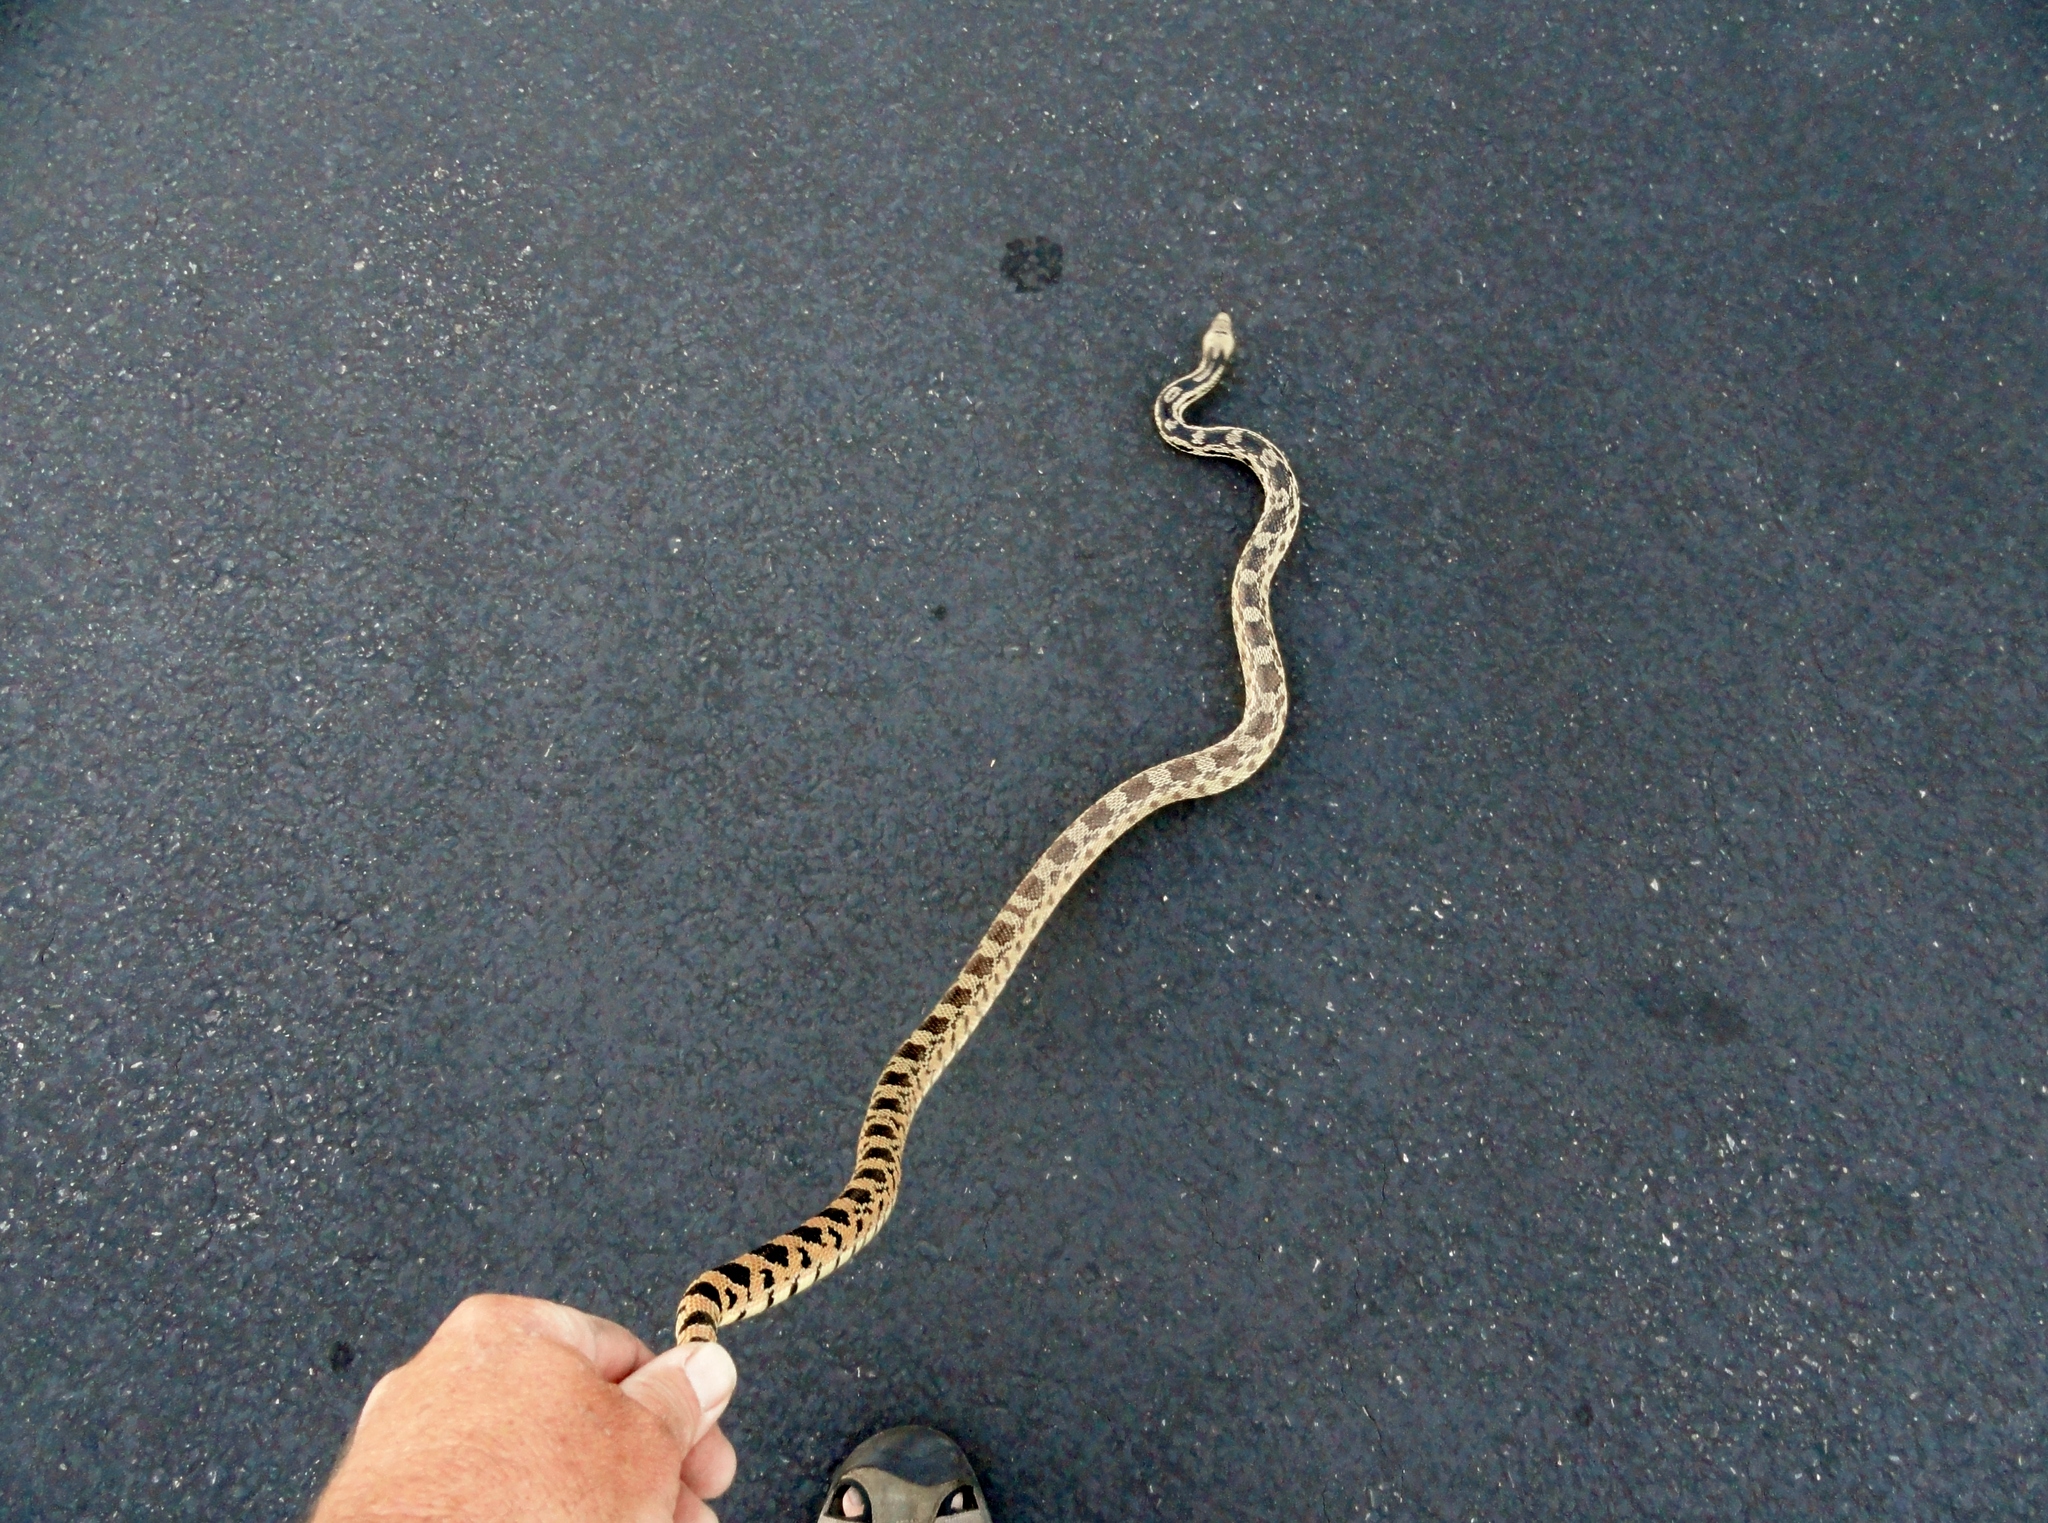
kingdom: Animalia
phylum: Chordata
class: Squamata
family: Colubridae
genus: Pituophis
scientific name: Pituophis catenifer
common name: Gopher snake
